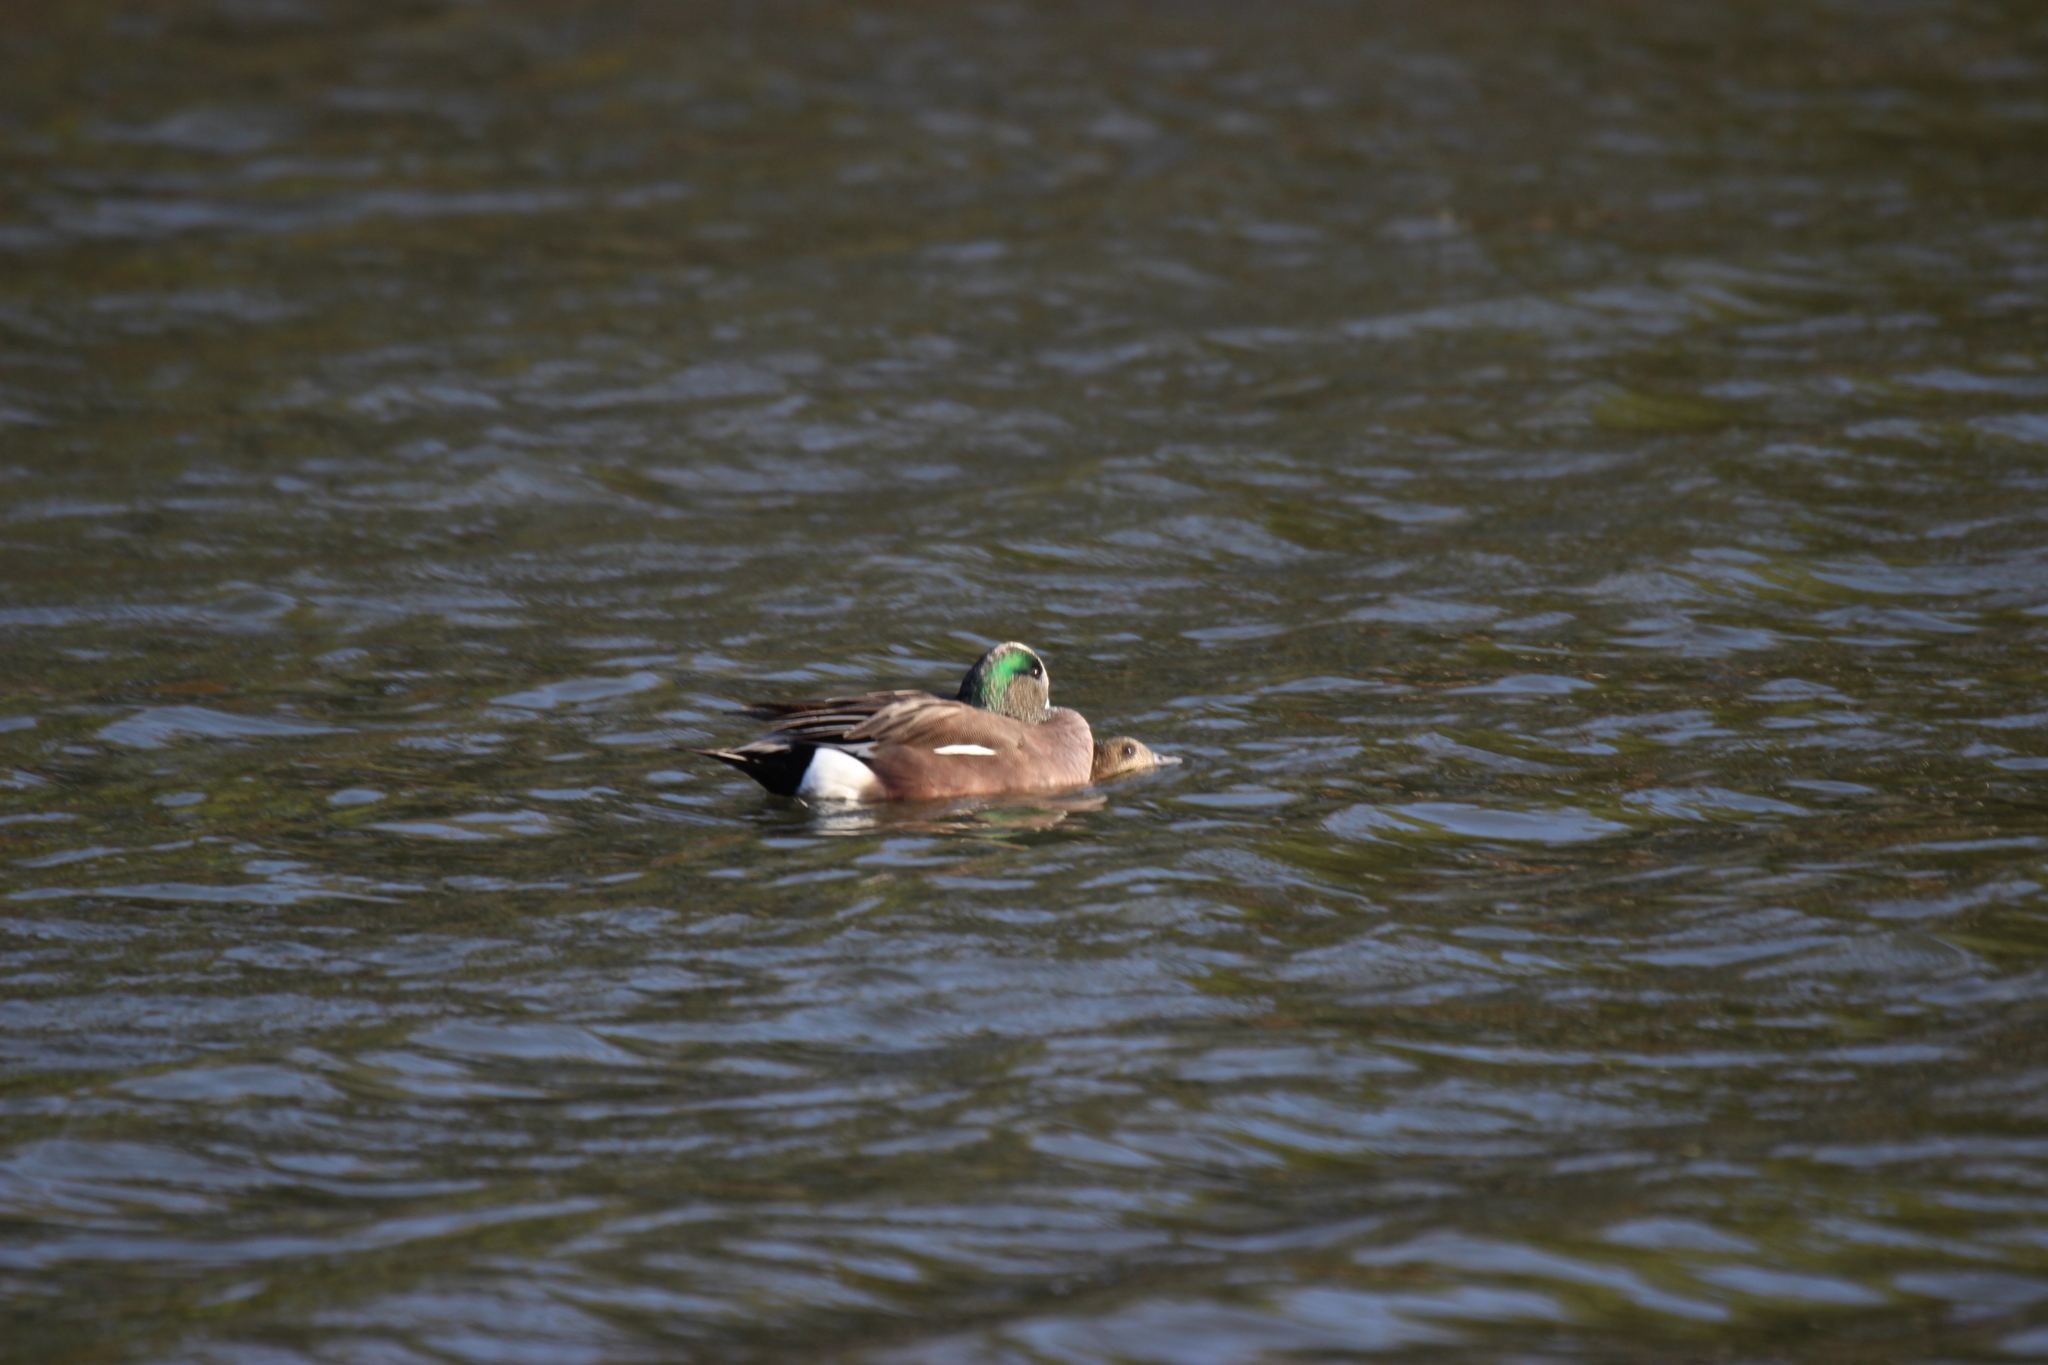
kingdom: Animalia
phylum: Chordata
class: Aves
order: Anseriformes
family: Anatidae
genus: Mareca
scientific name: Mareca americana
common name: American wigeon
